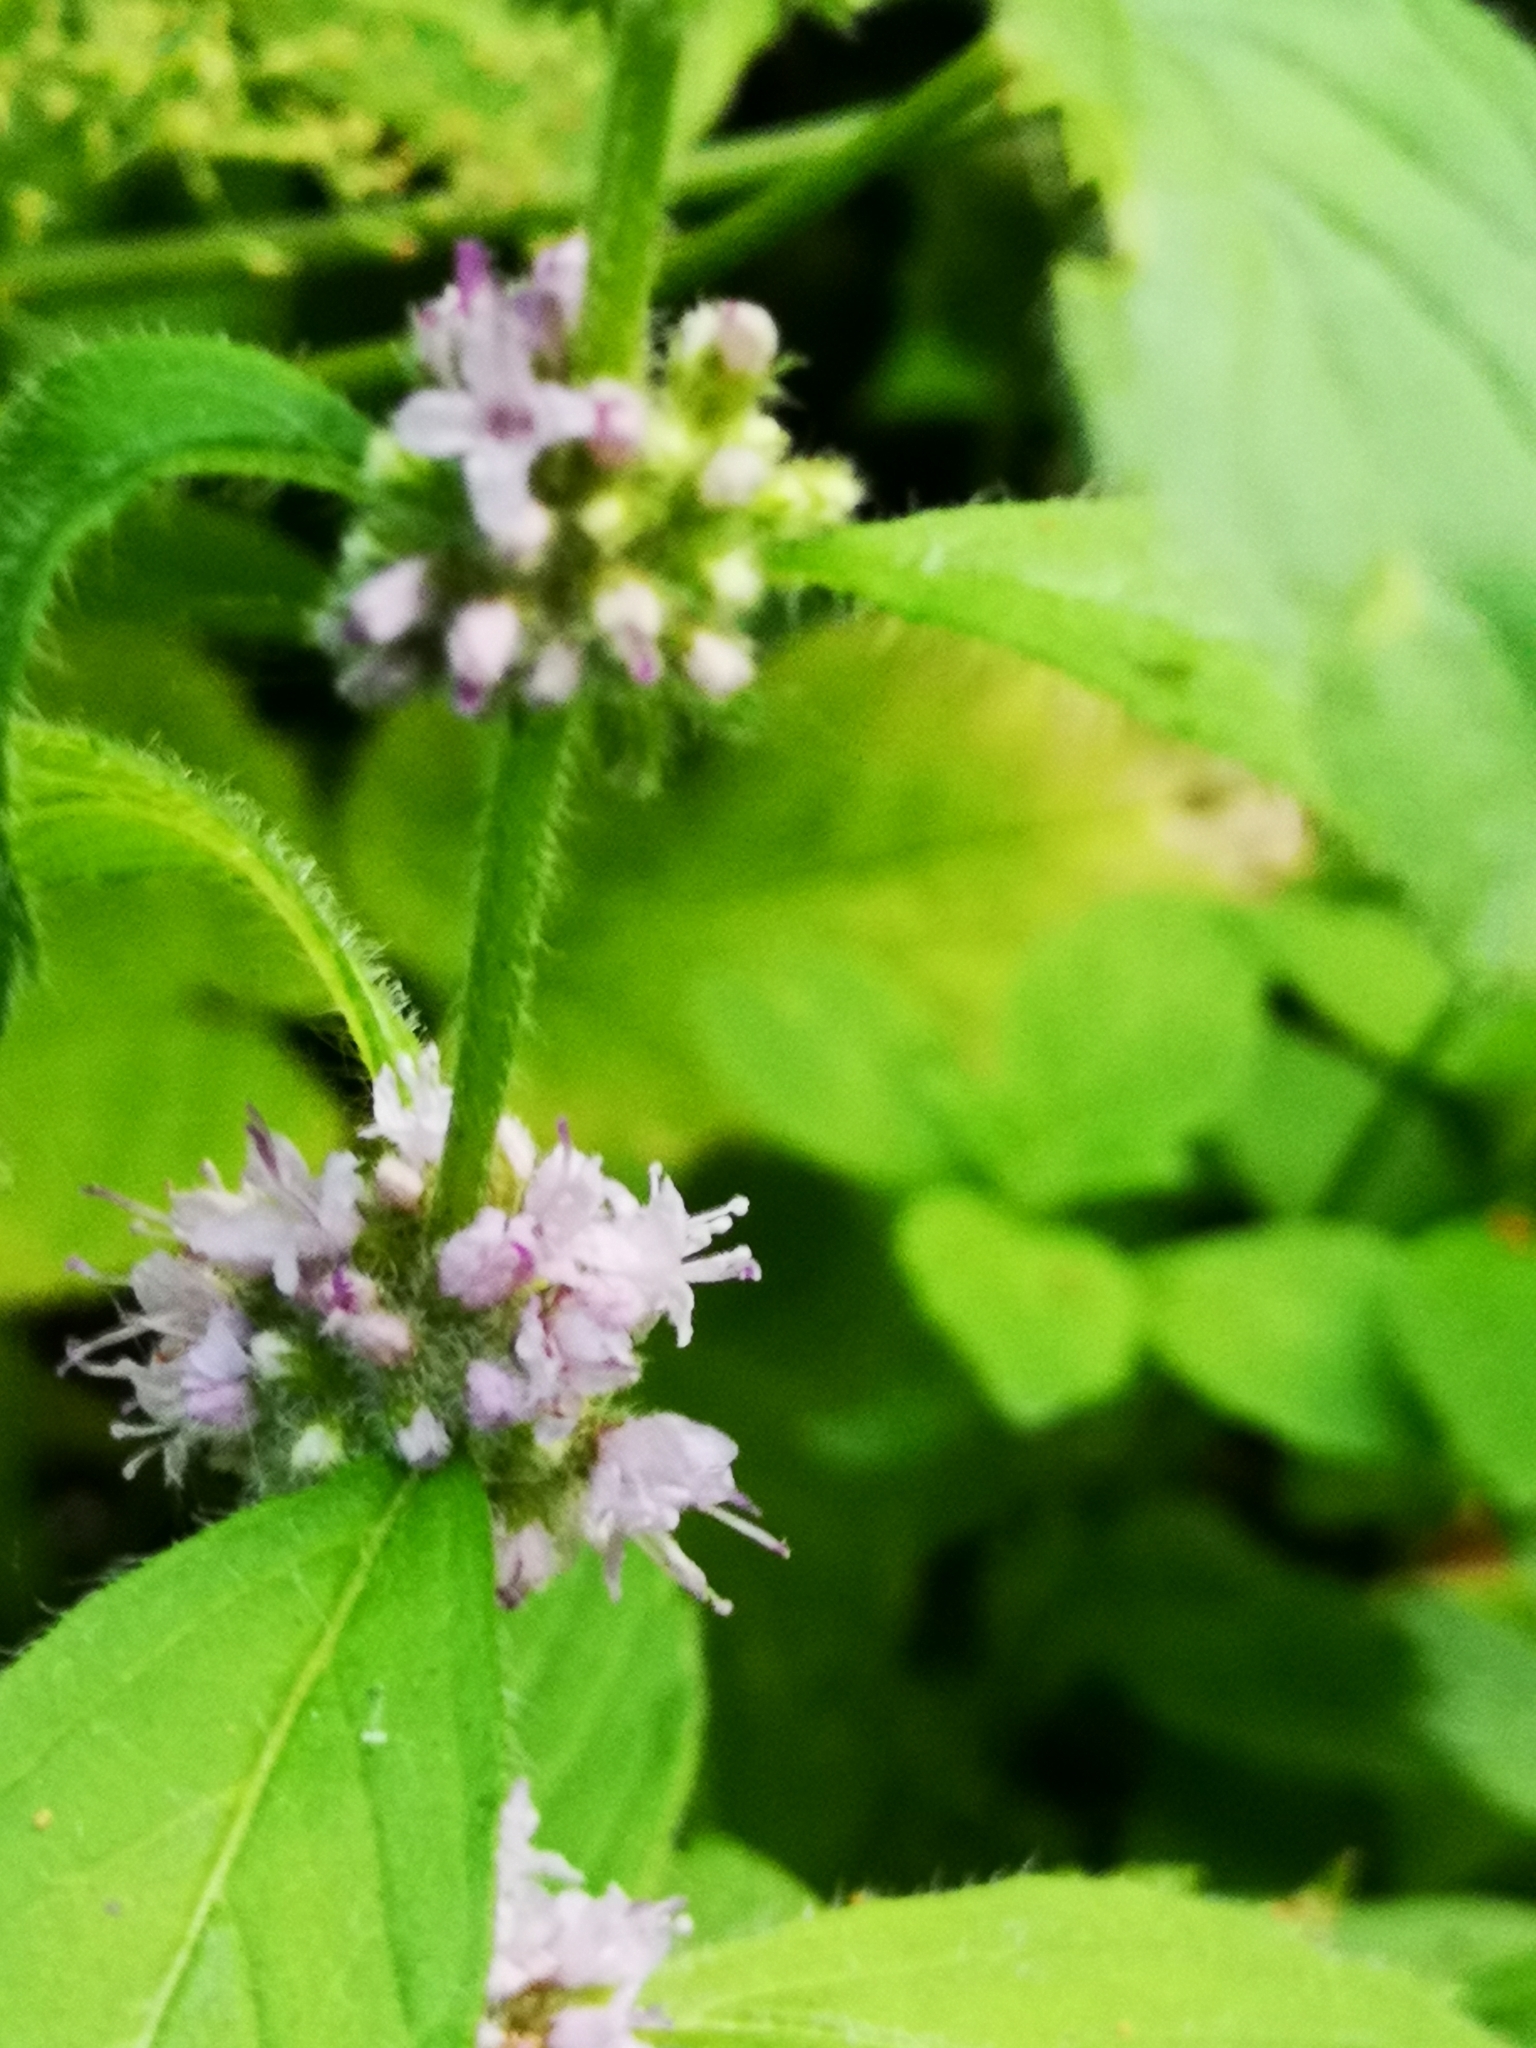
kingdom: Plantae
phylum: Tracheophyta
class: Magnoliopsida
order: Lamiales
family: Lamiaceae
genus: Mentha
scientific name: Mentha arvensis
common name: Corn mint
